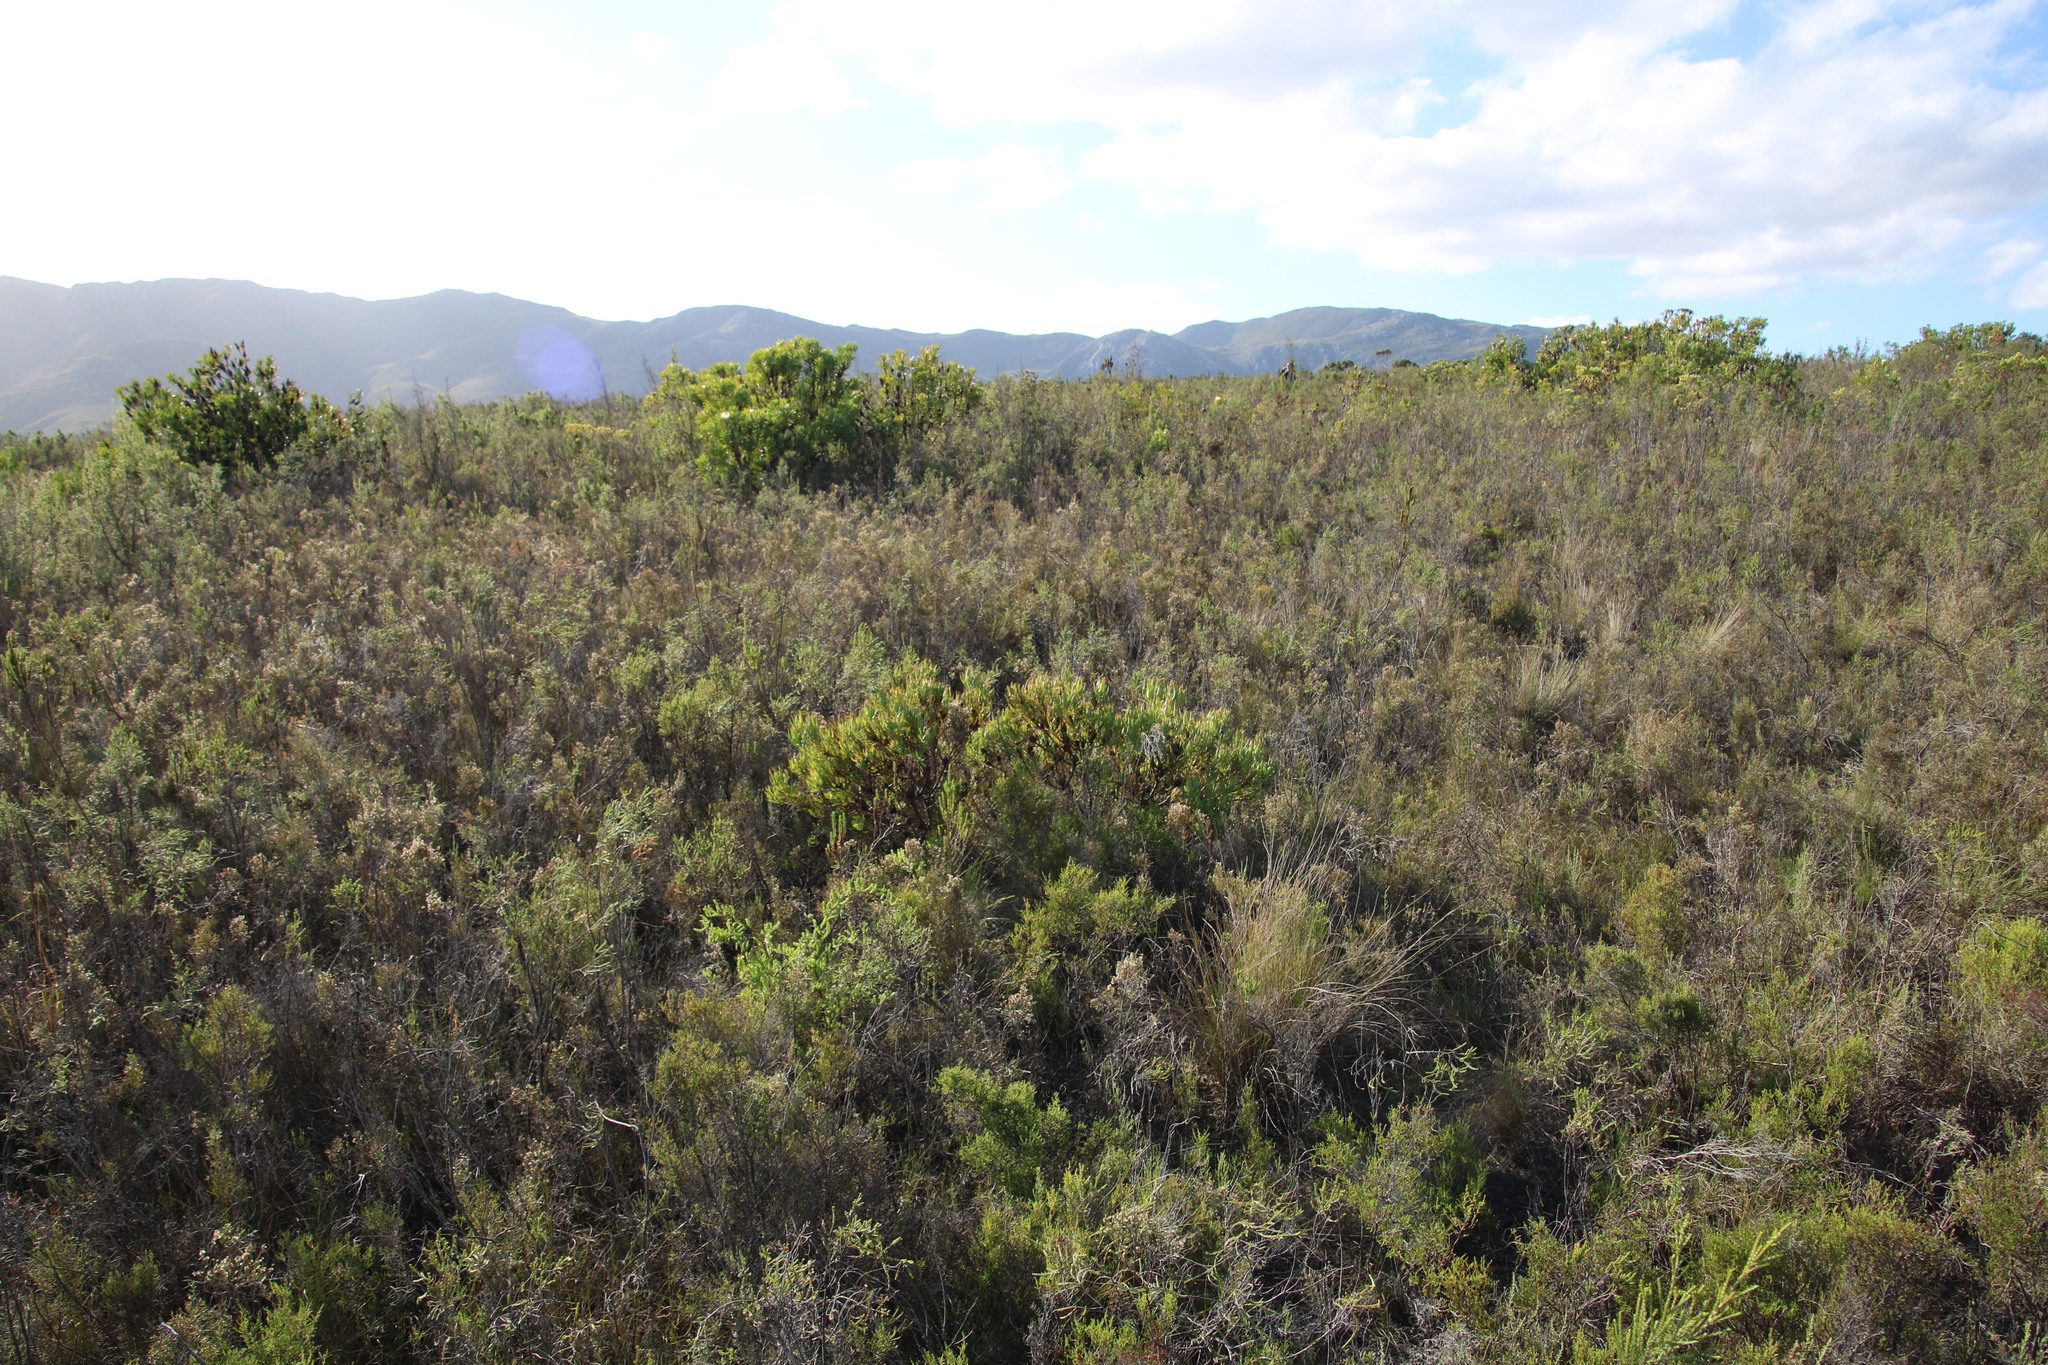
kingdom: Plantae
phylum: Tracheophyta
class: Magnoliopsida
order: Proteales
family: Proteaceae
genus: Leucadendron
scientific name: Leucadendron salignum
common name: Common sunshine conebush
